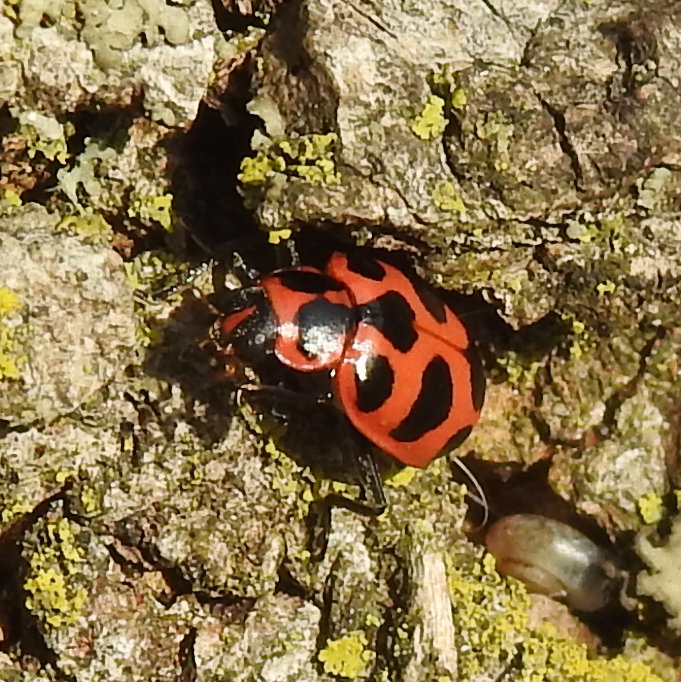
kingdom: Animalia
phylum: Arthropoda
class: Insecta
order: Coleoptera
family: Coccinellidae
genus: Coleomegilla
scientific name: Coleomegilla maculata
